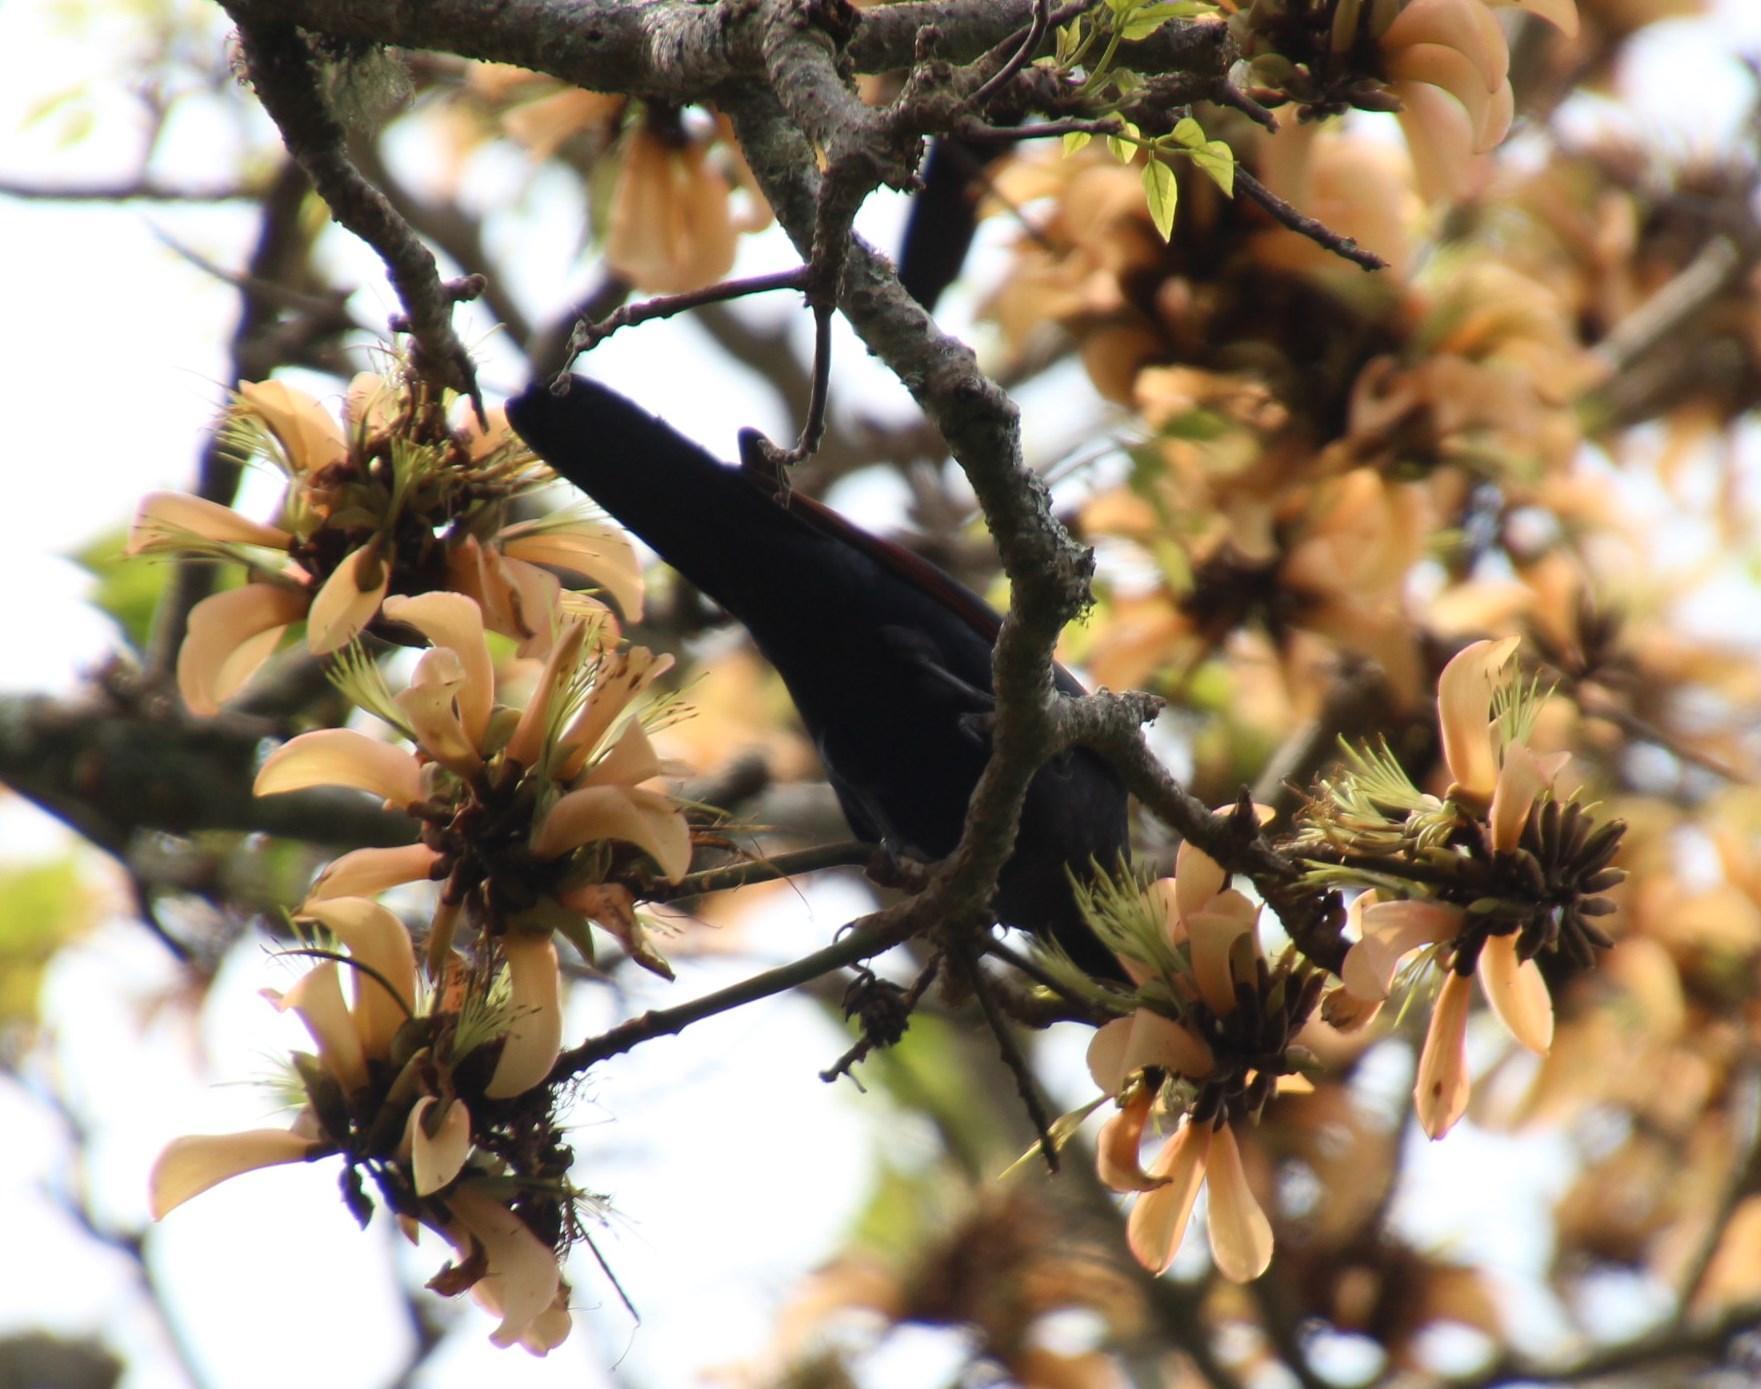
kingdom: Animalia
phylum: Chordata
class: Aves
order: Passeriformes
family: Sturnidae
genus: Onychognathus
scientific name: Onychognathus morio
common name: Red-winged starling
